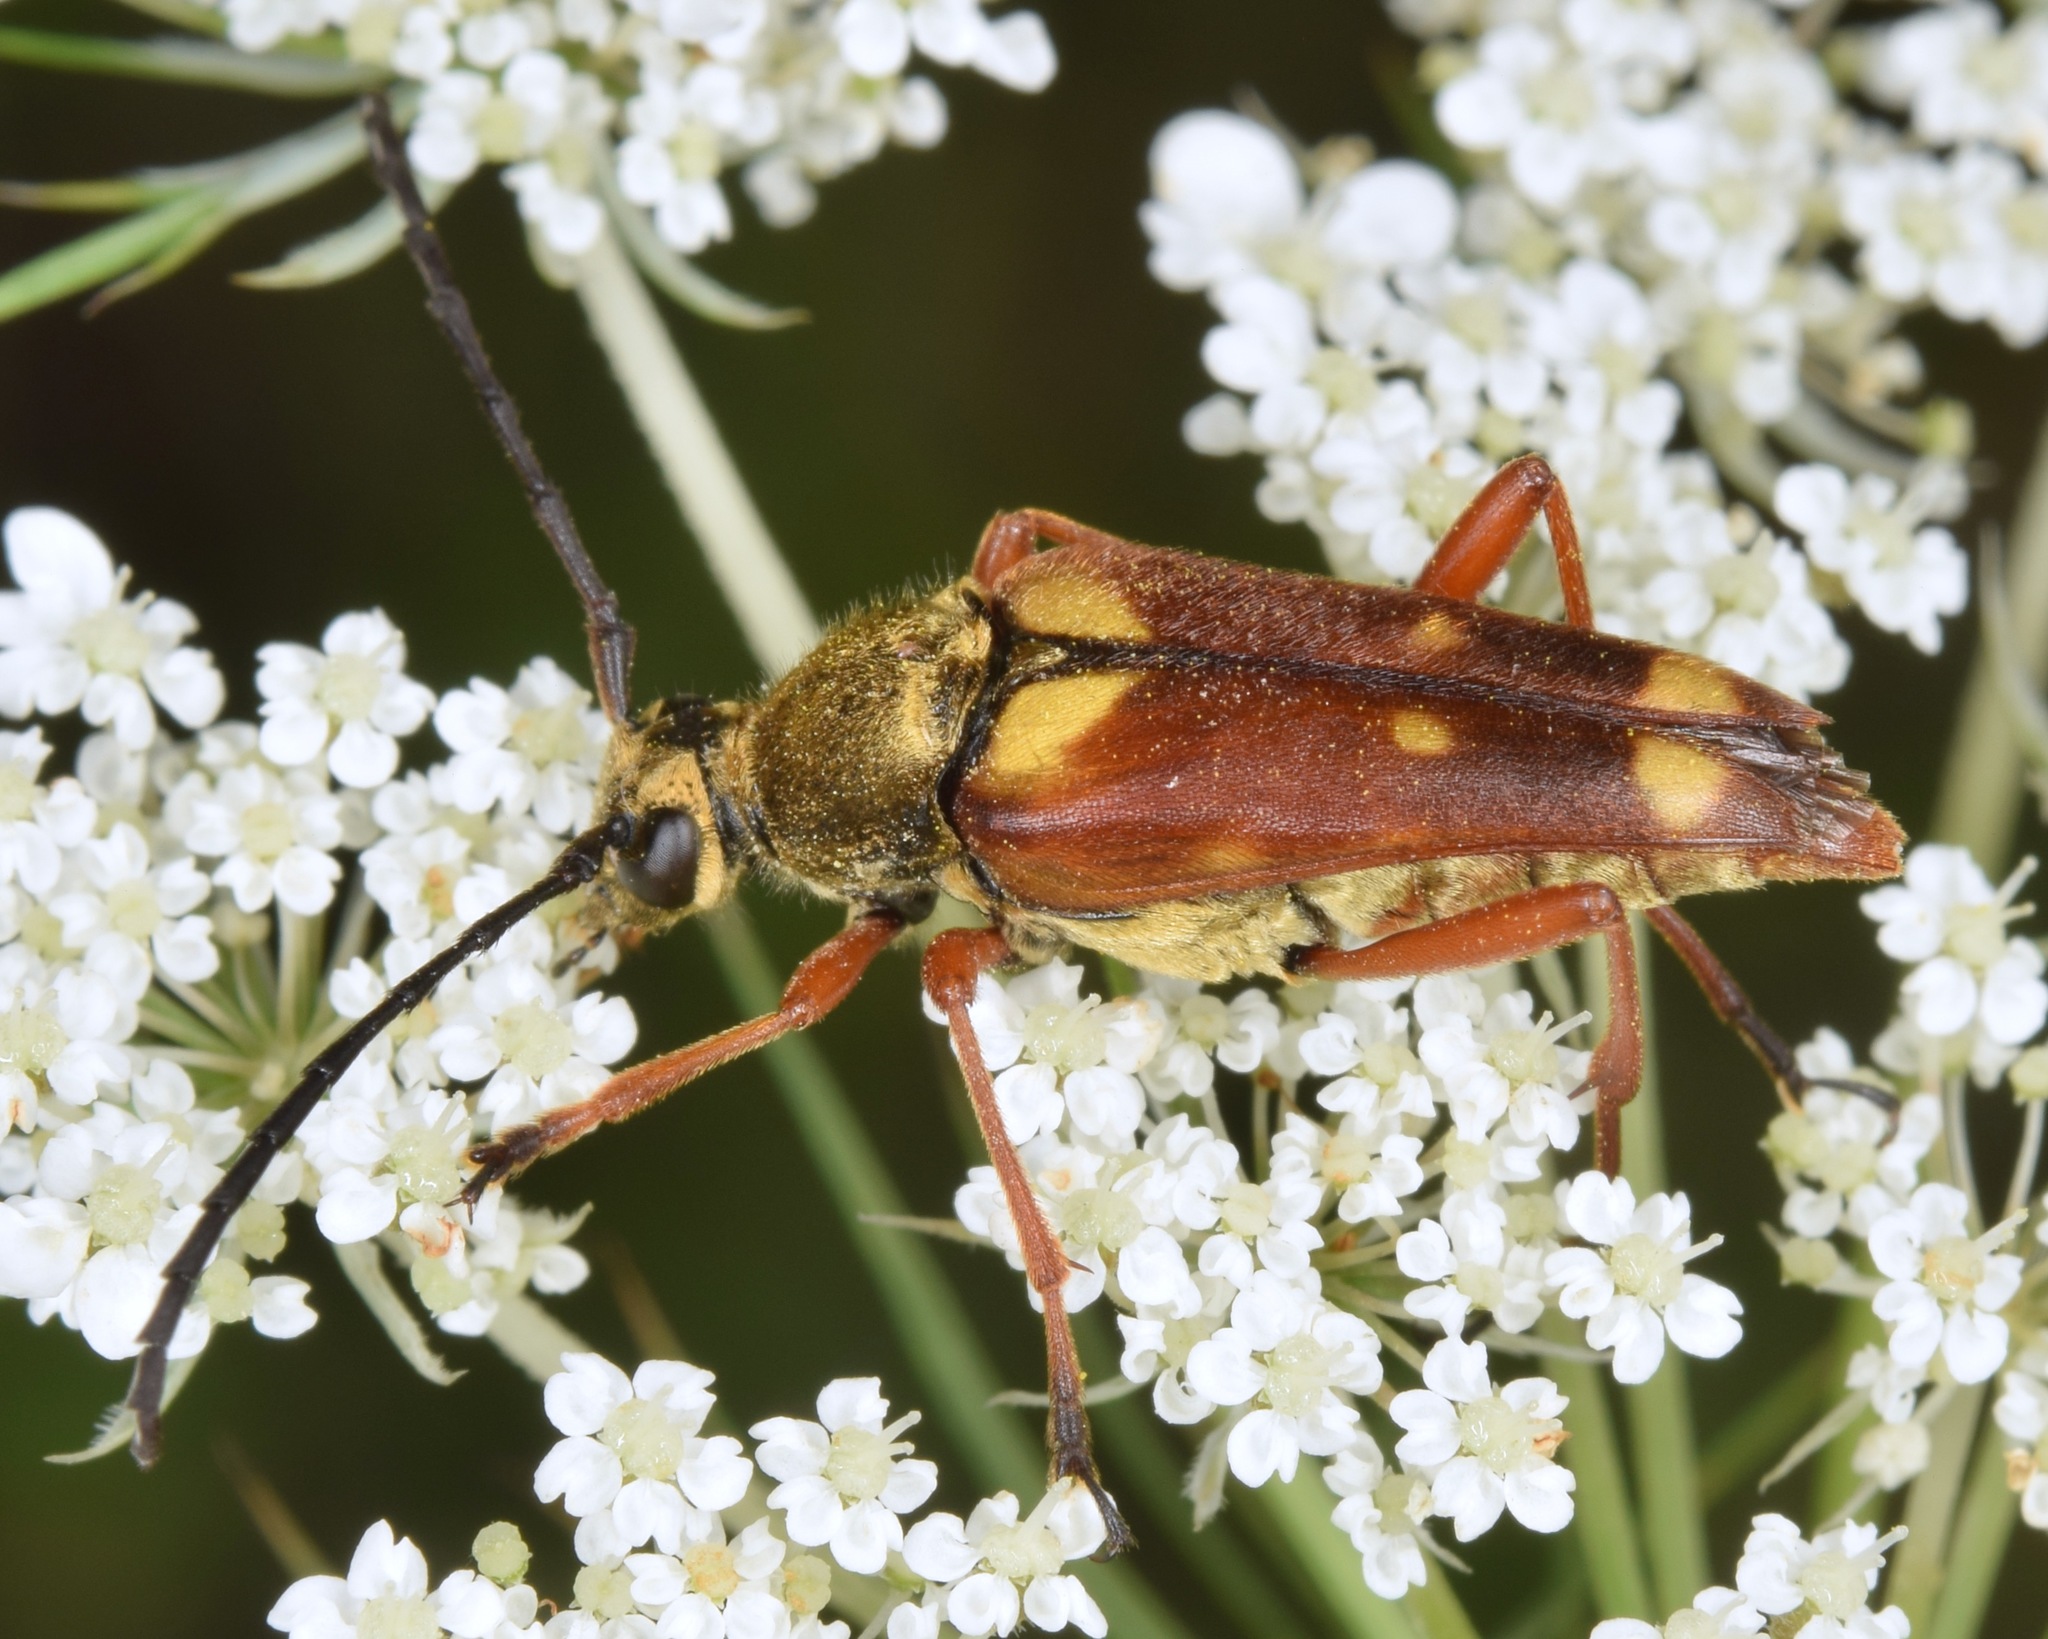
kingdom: Animalia
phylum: Arthropoda
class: Insecta
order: Coleoptera
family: Cerambycidae
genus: Typocerus
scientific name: Typocerus acuticauda
